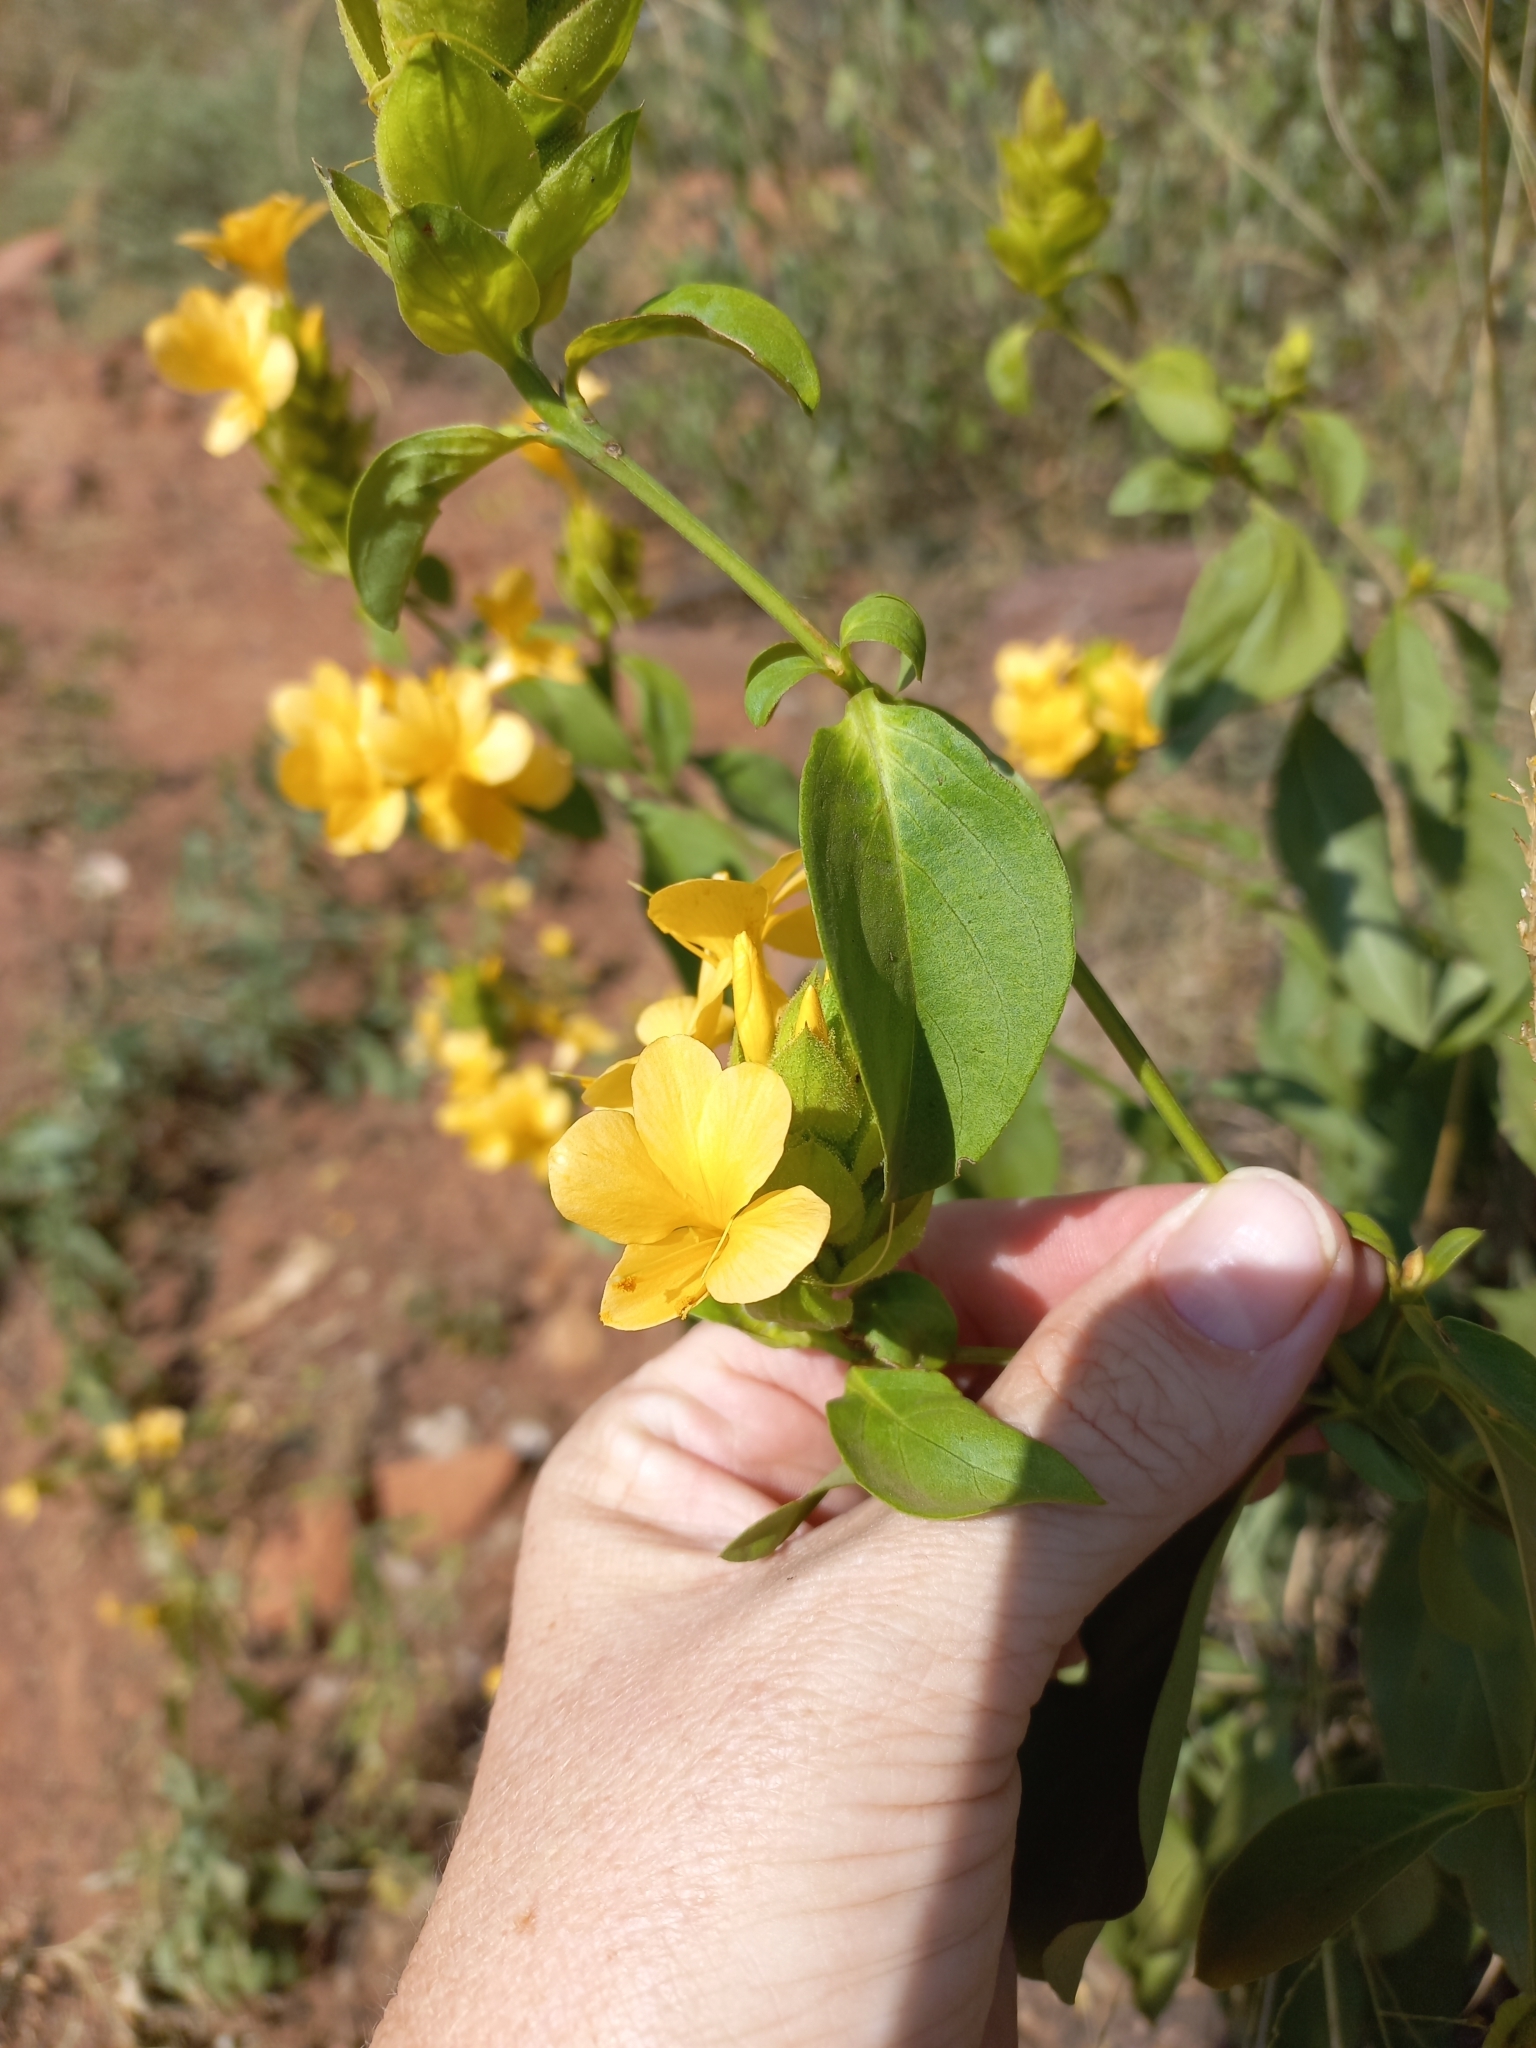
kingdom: Plantae
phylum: Tracheophyta
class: Magnoliopsida
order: Lamiales
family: Acanthaceae
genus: Barleria
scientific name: Barleria crossandriformis
